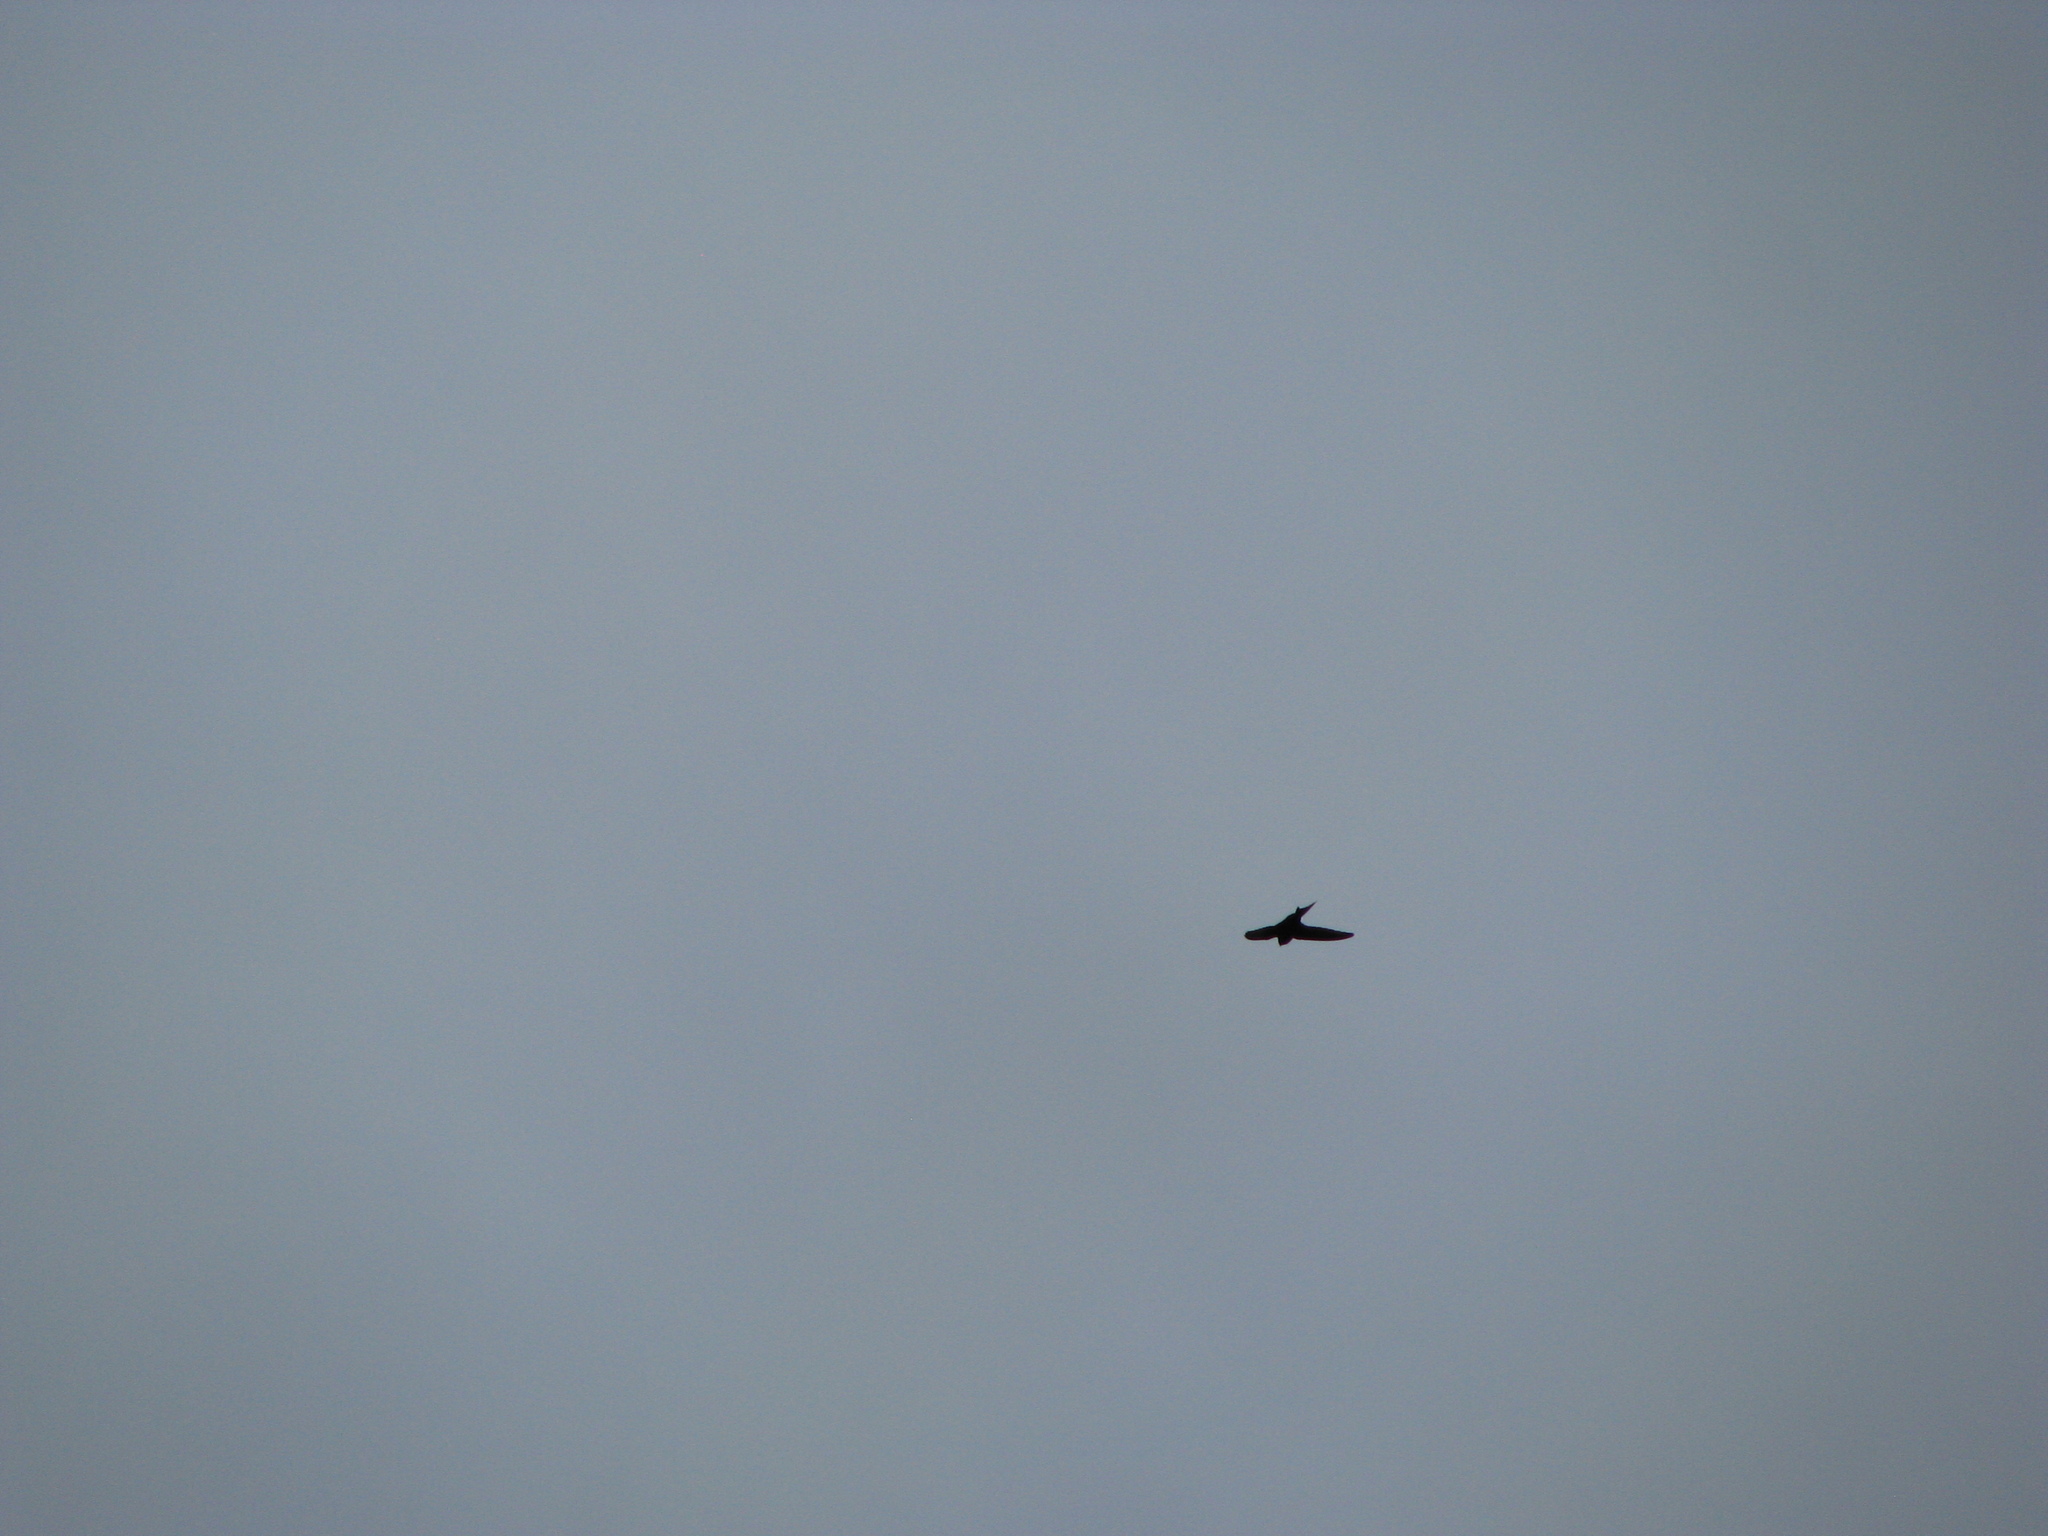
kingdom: Animalia
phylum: Chordata
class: Aves
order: Apodiformes
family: Apodidae
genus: Apus
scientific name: Apus apus
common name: Common swift
